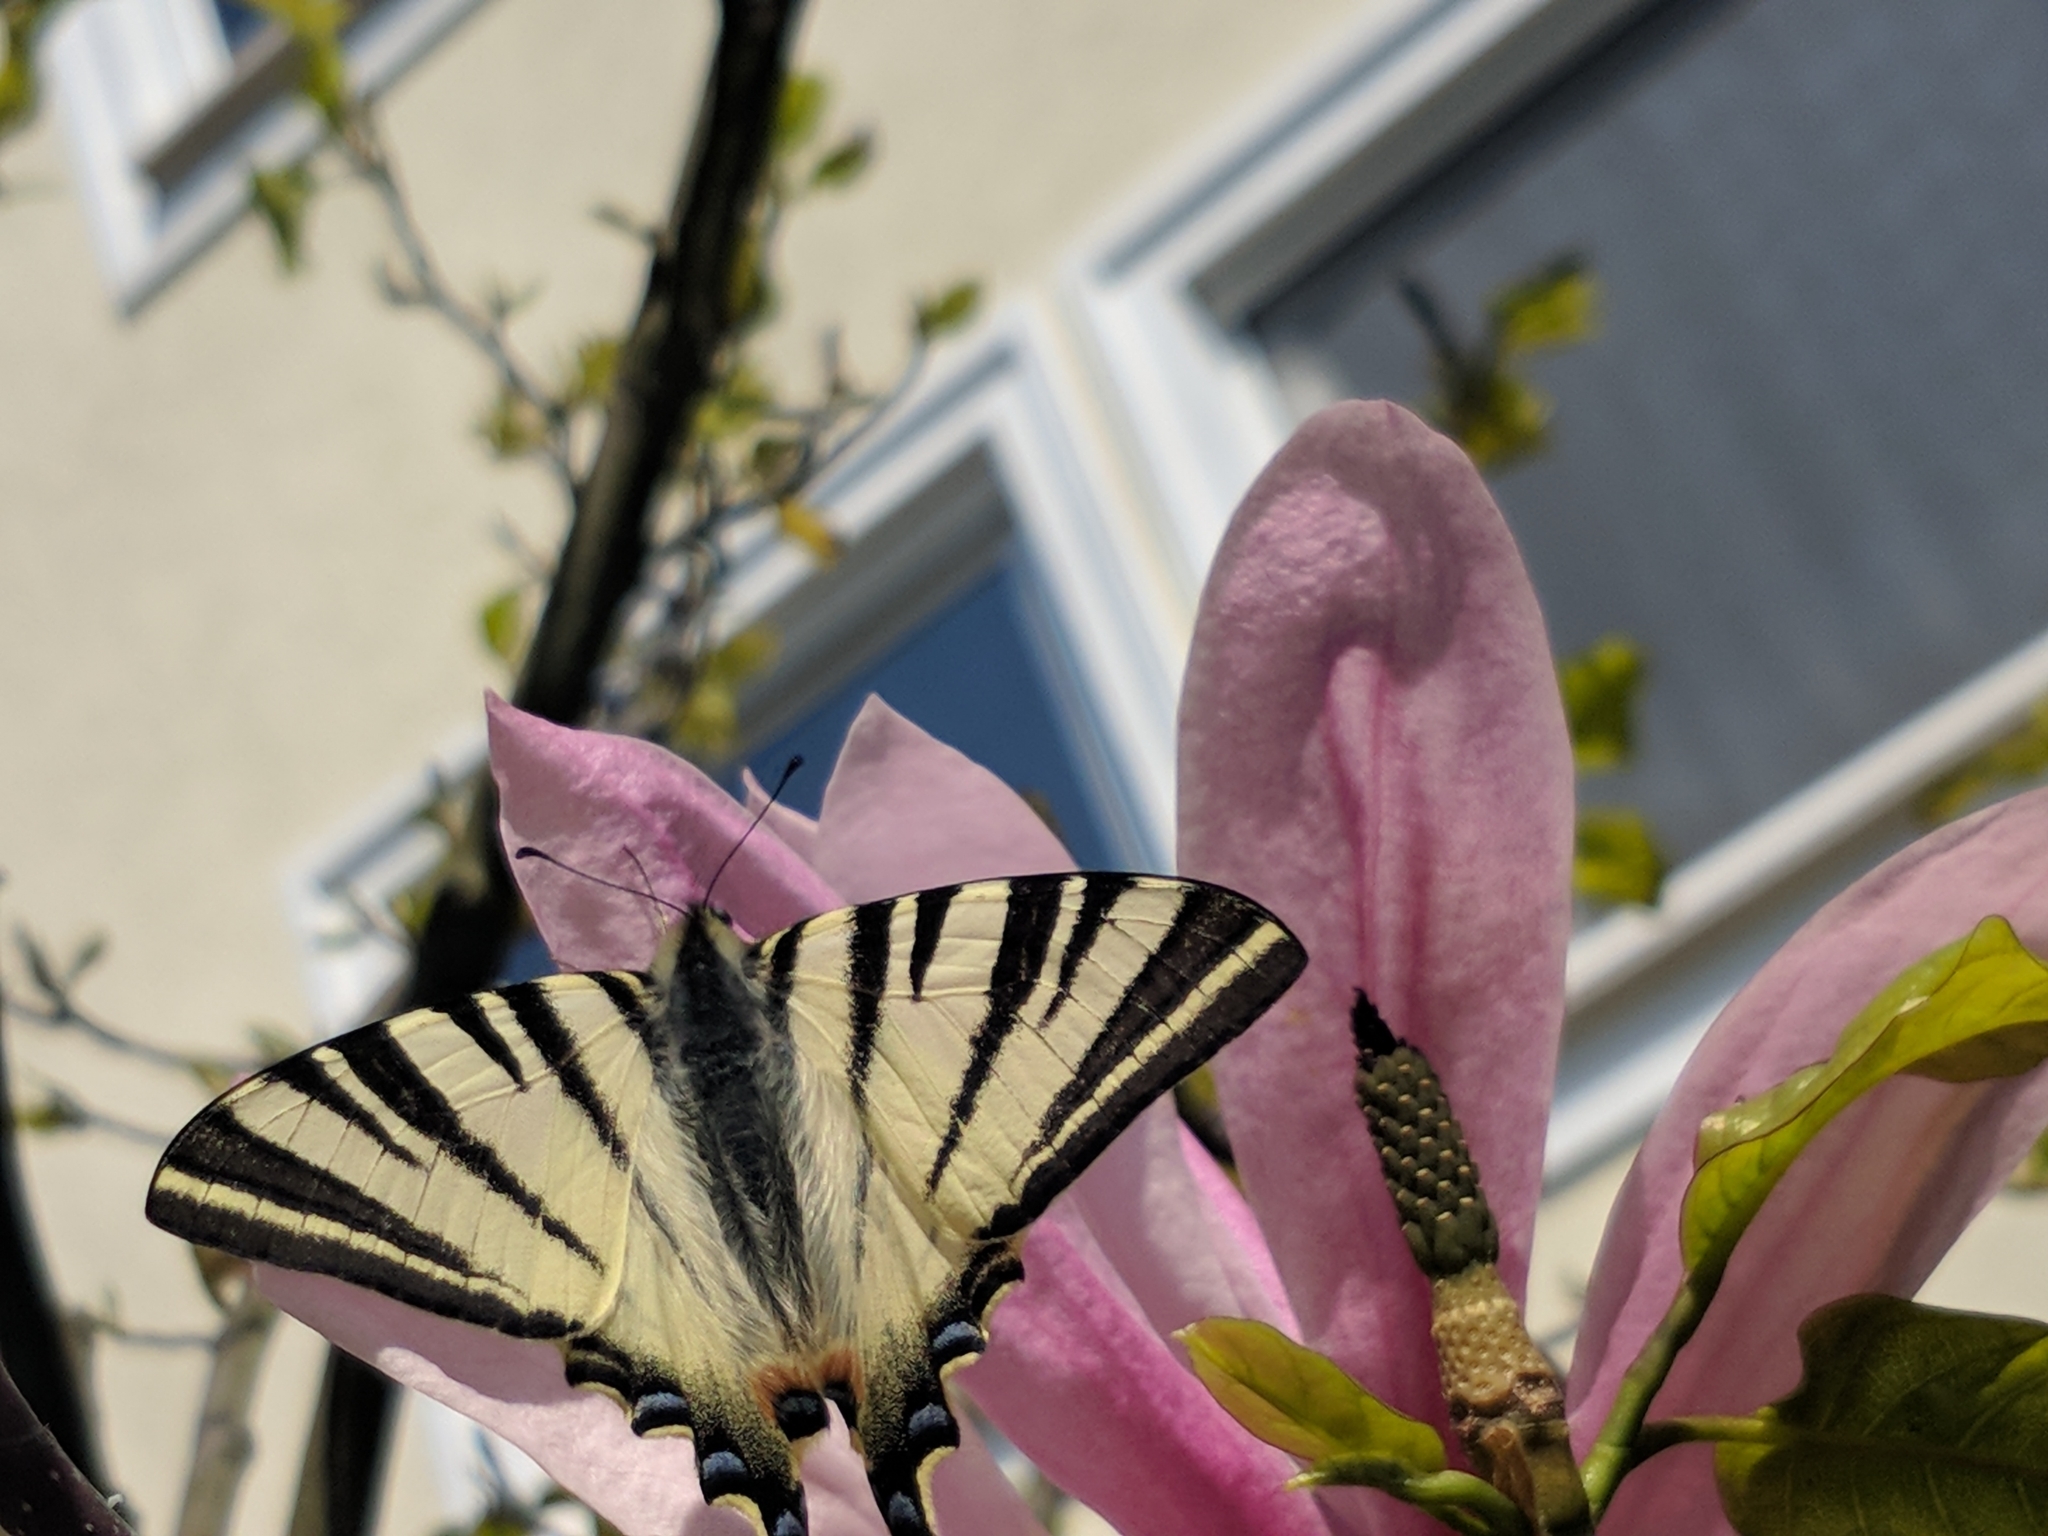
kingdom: Animalia
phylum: Arthropoda
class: Insecta
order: Lepidoptera
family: Papilionidae
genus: Iphiclides
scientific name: Iphiclides podalirius
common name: Scarce swallowtail
